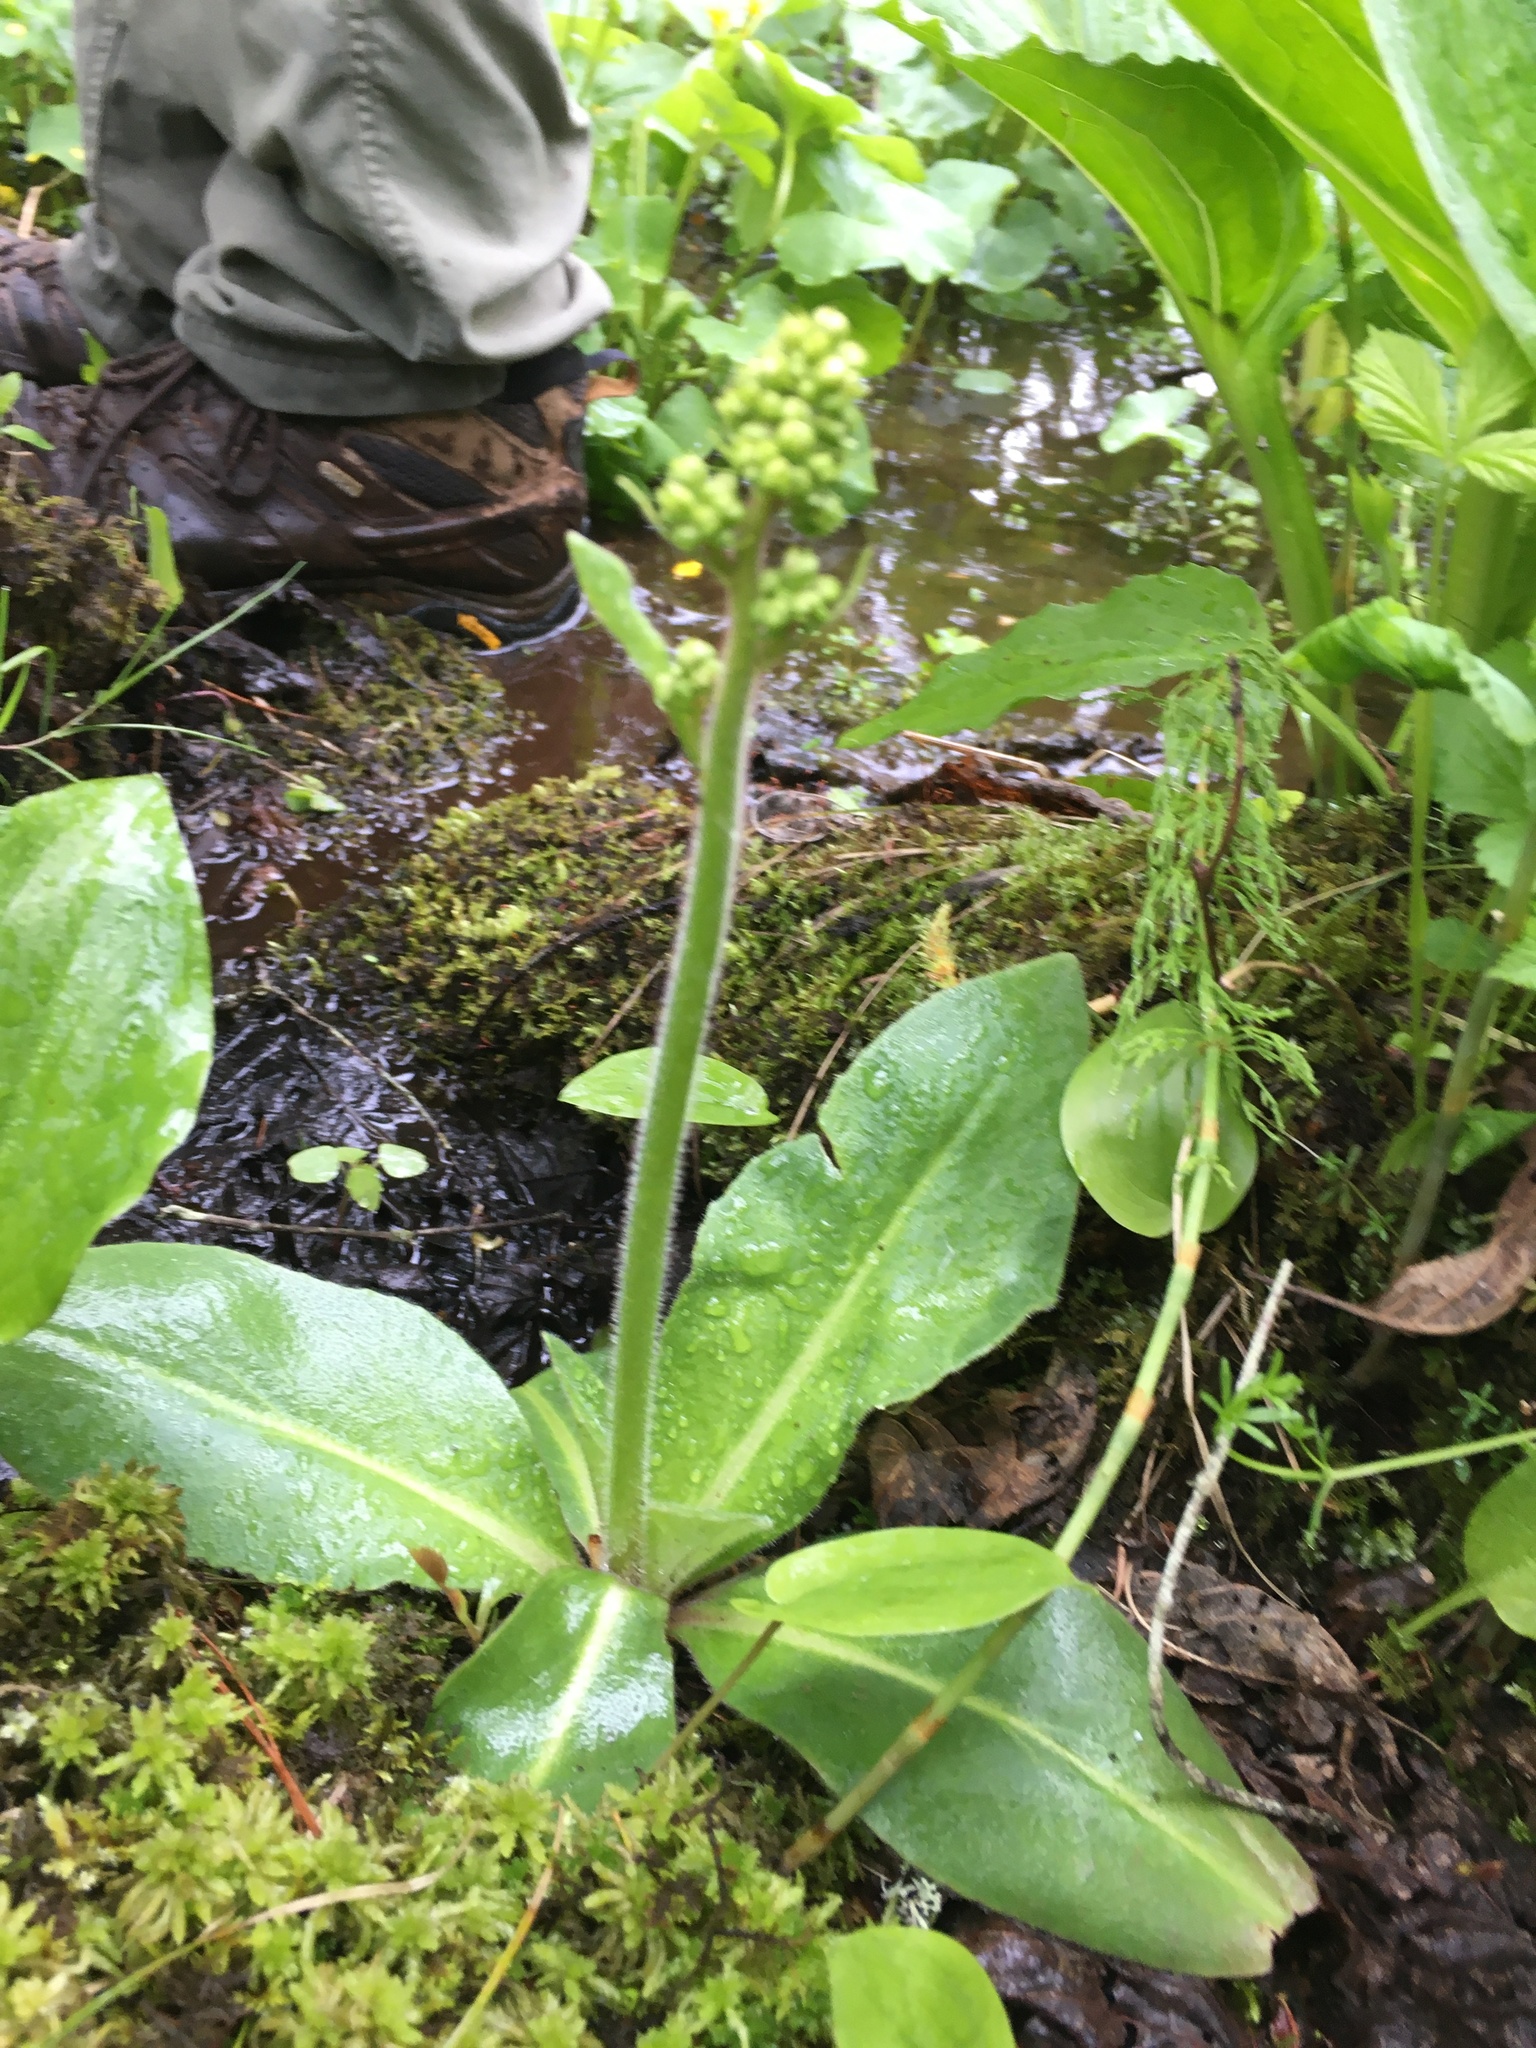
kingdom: Plantae
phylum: Tracheophyta
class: Magnoliopsida
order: Saxifragales
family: Saxifragaceae
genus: Micranthes
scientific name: Micranthes pensylvanica
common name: Marsh saxifrage
